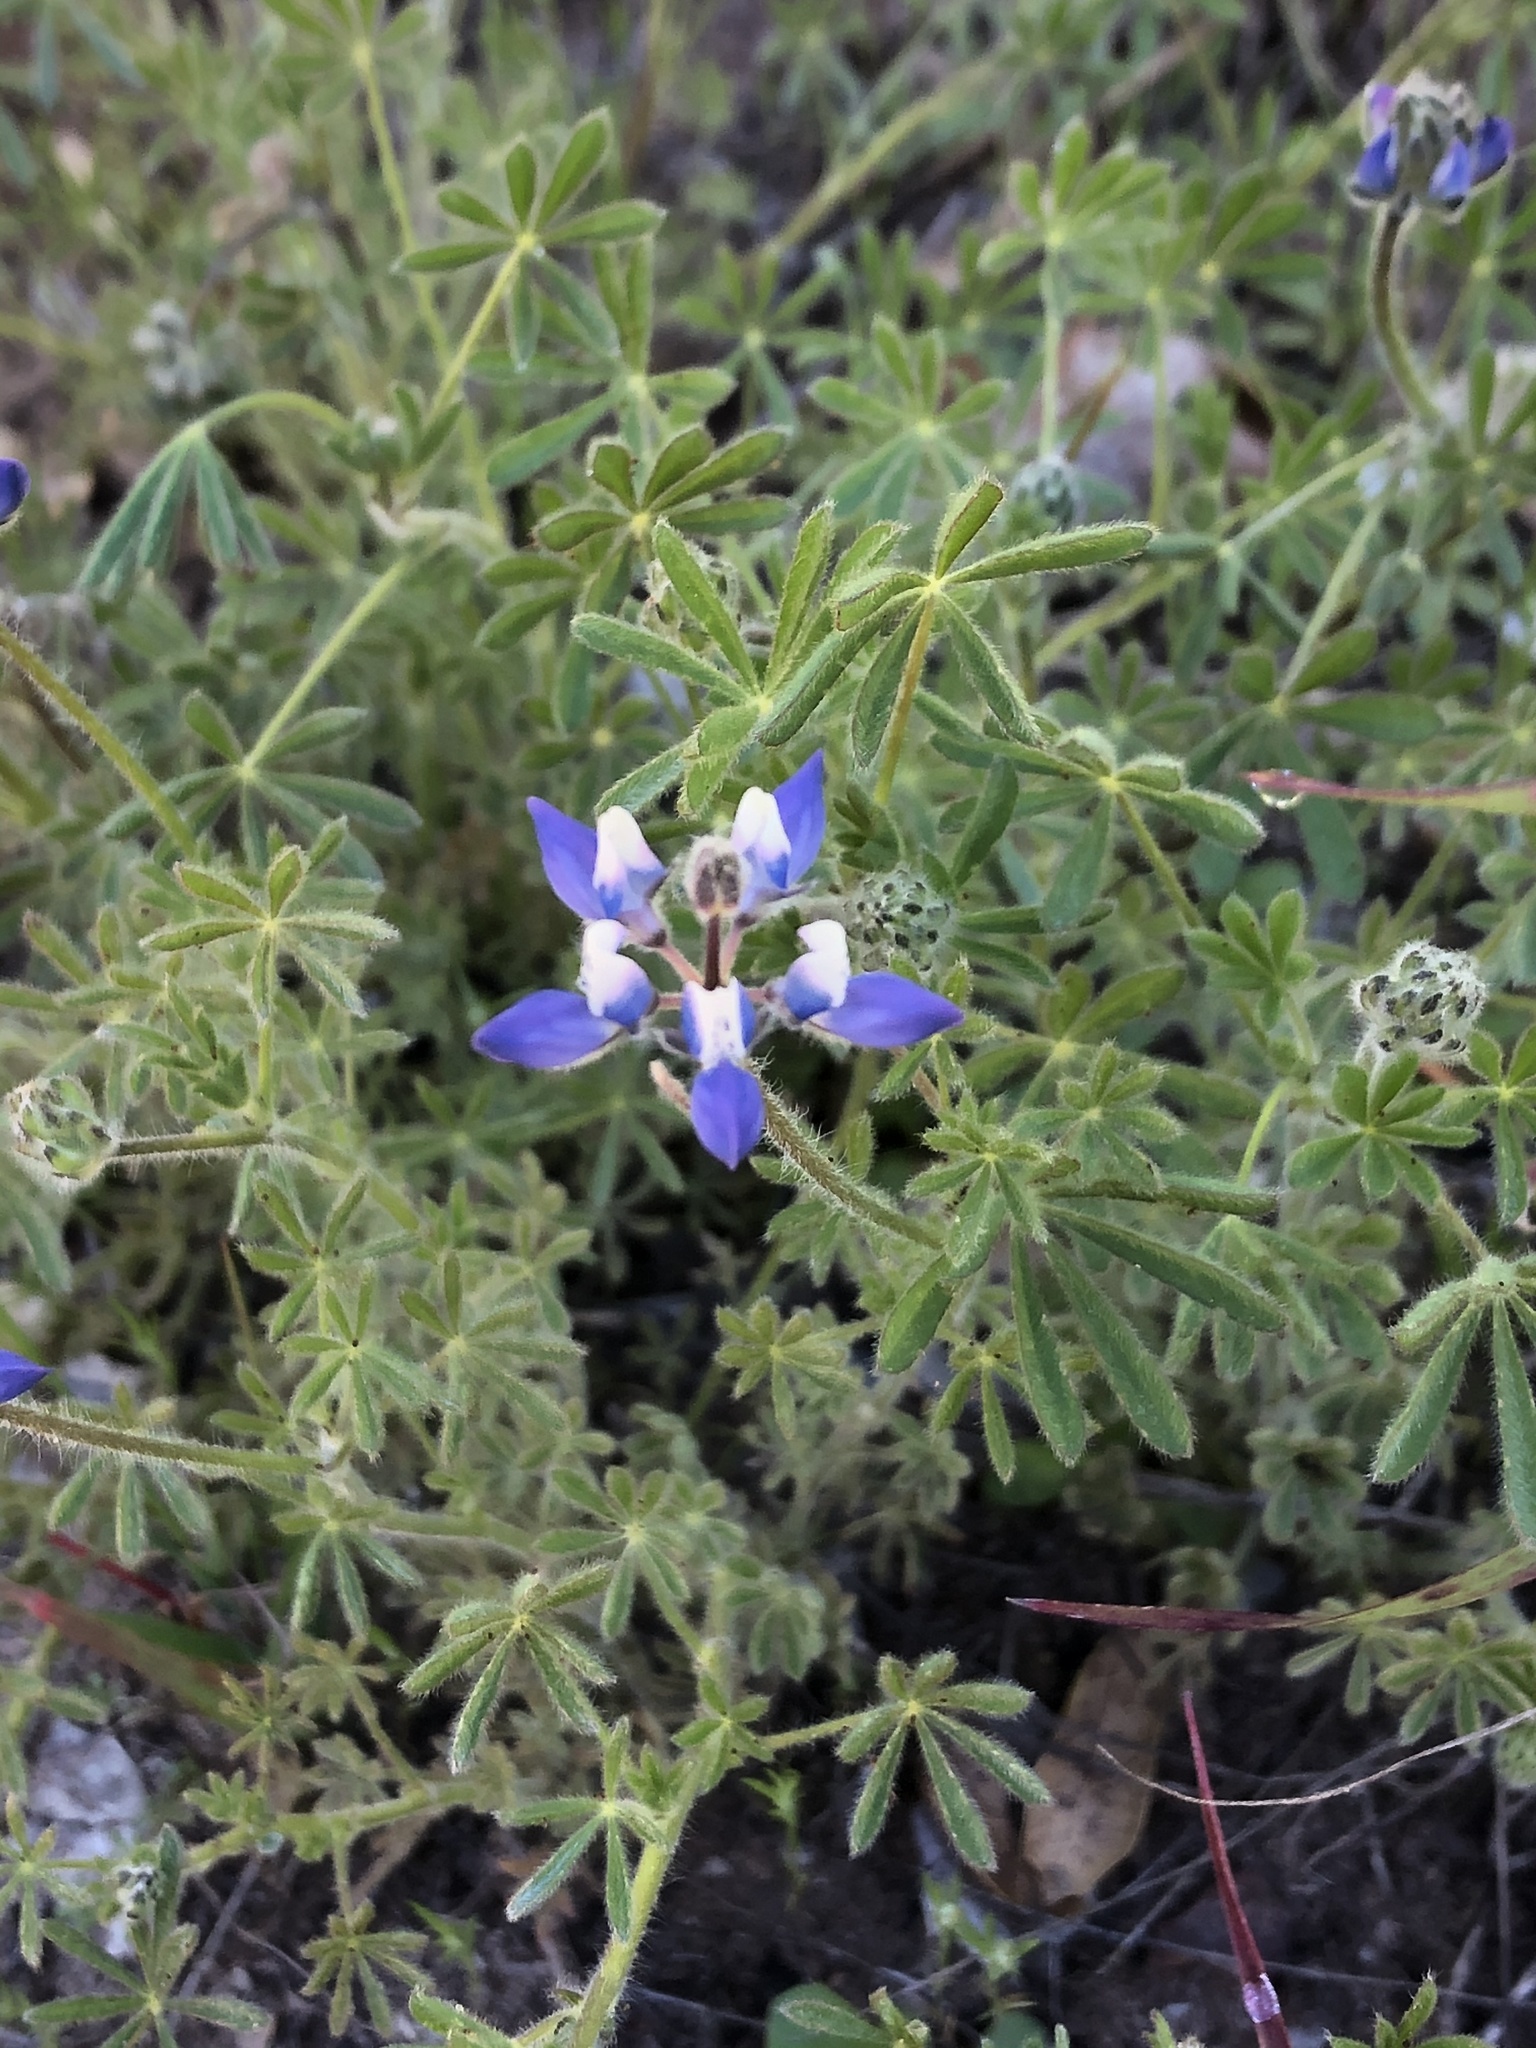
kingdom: Plantae
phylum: Tracheophyta
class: Magnoliopsida
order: Fabales
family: Fabaceae
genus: Lupinus
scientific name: Lupinus bicolor
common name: Miniature lupine
